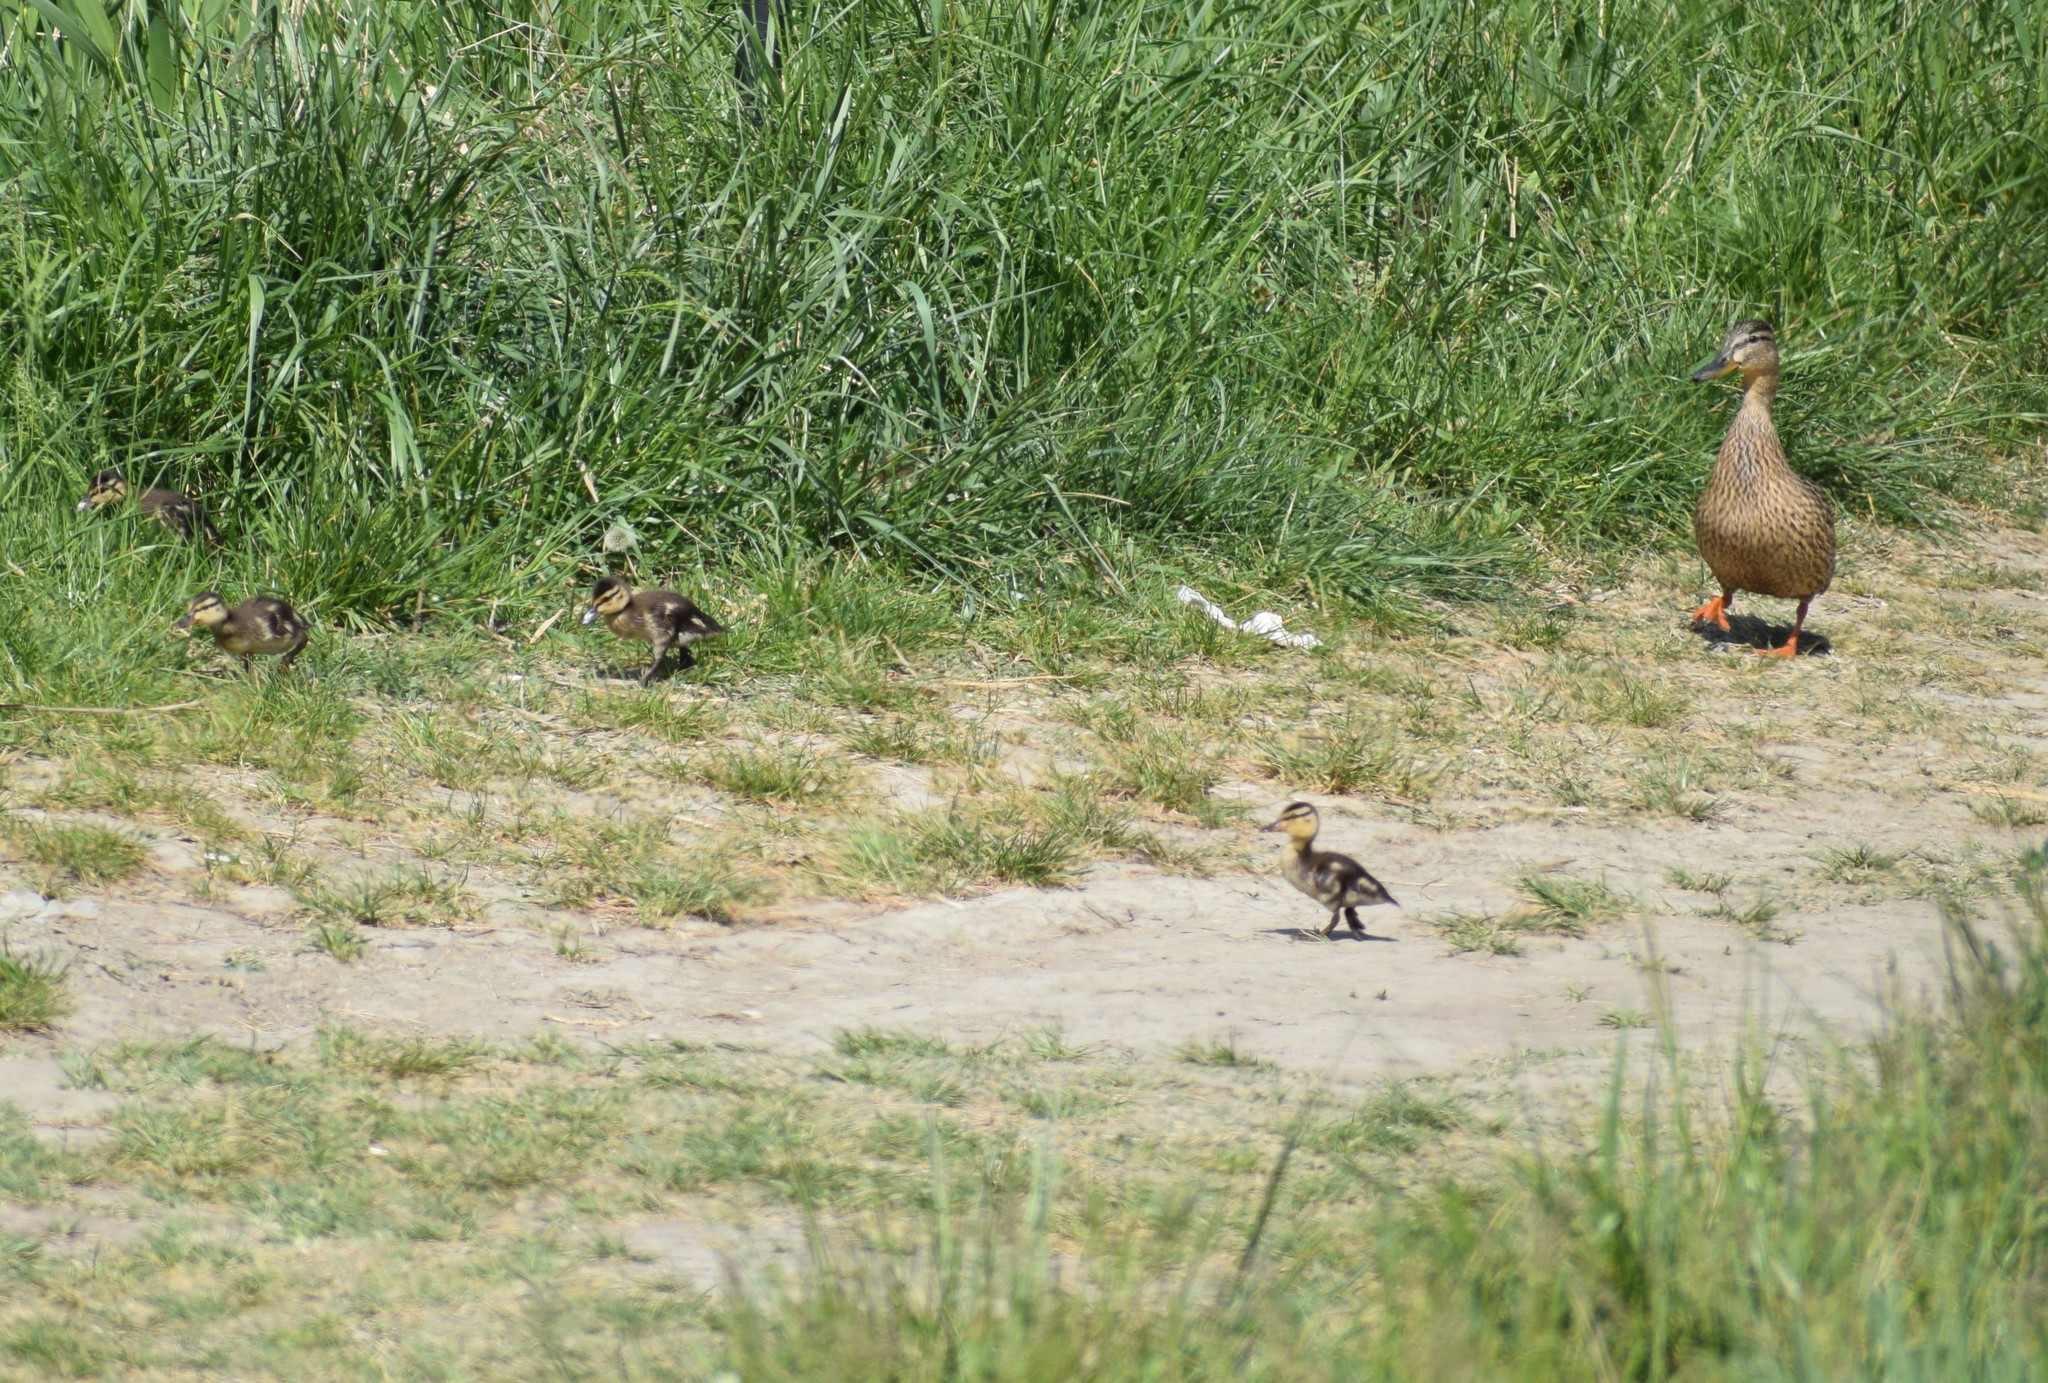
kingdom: Animalia
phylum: Chordata
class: Aves
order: Anseriformes
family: Anatidae
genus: Anas
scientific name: Anas platyrhynchos
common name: Mallard
